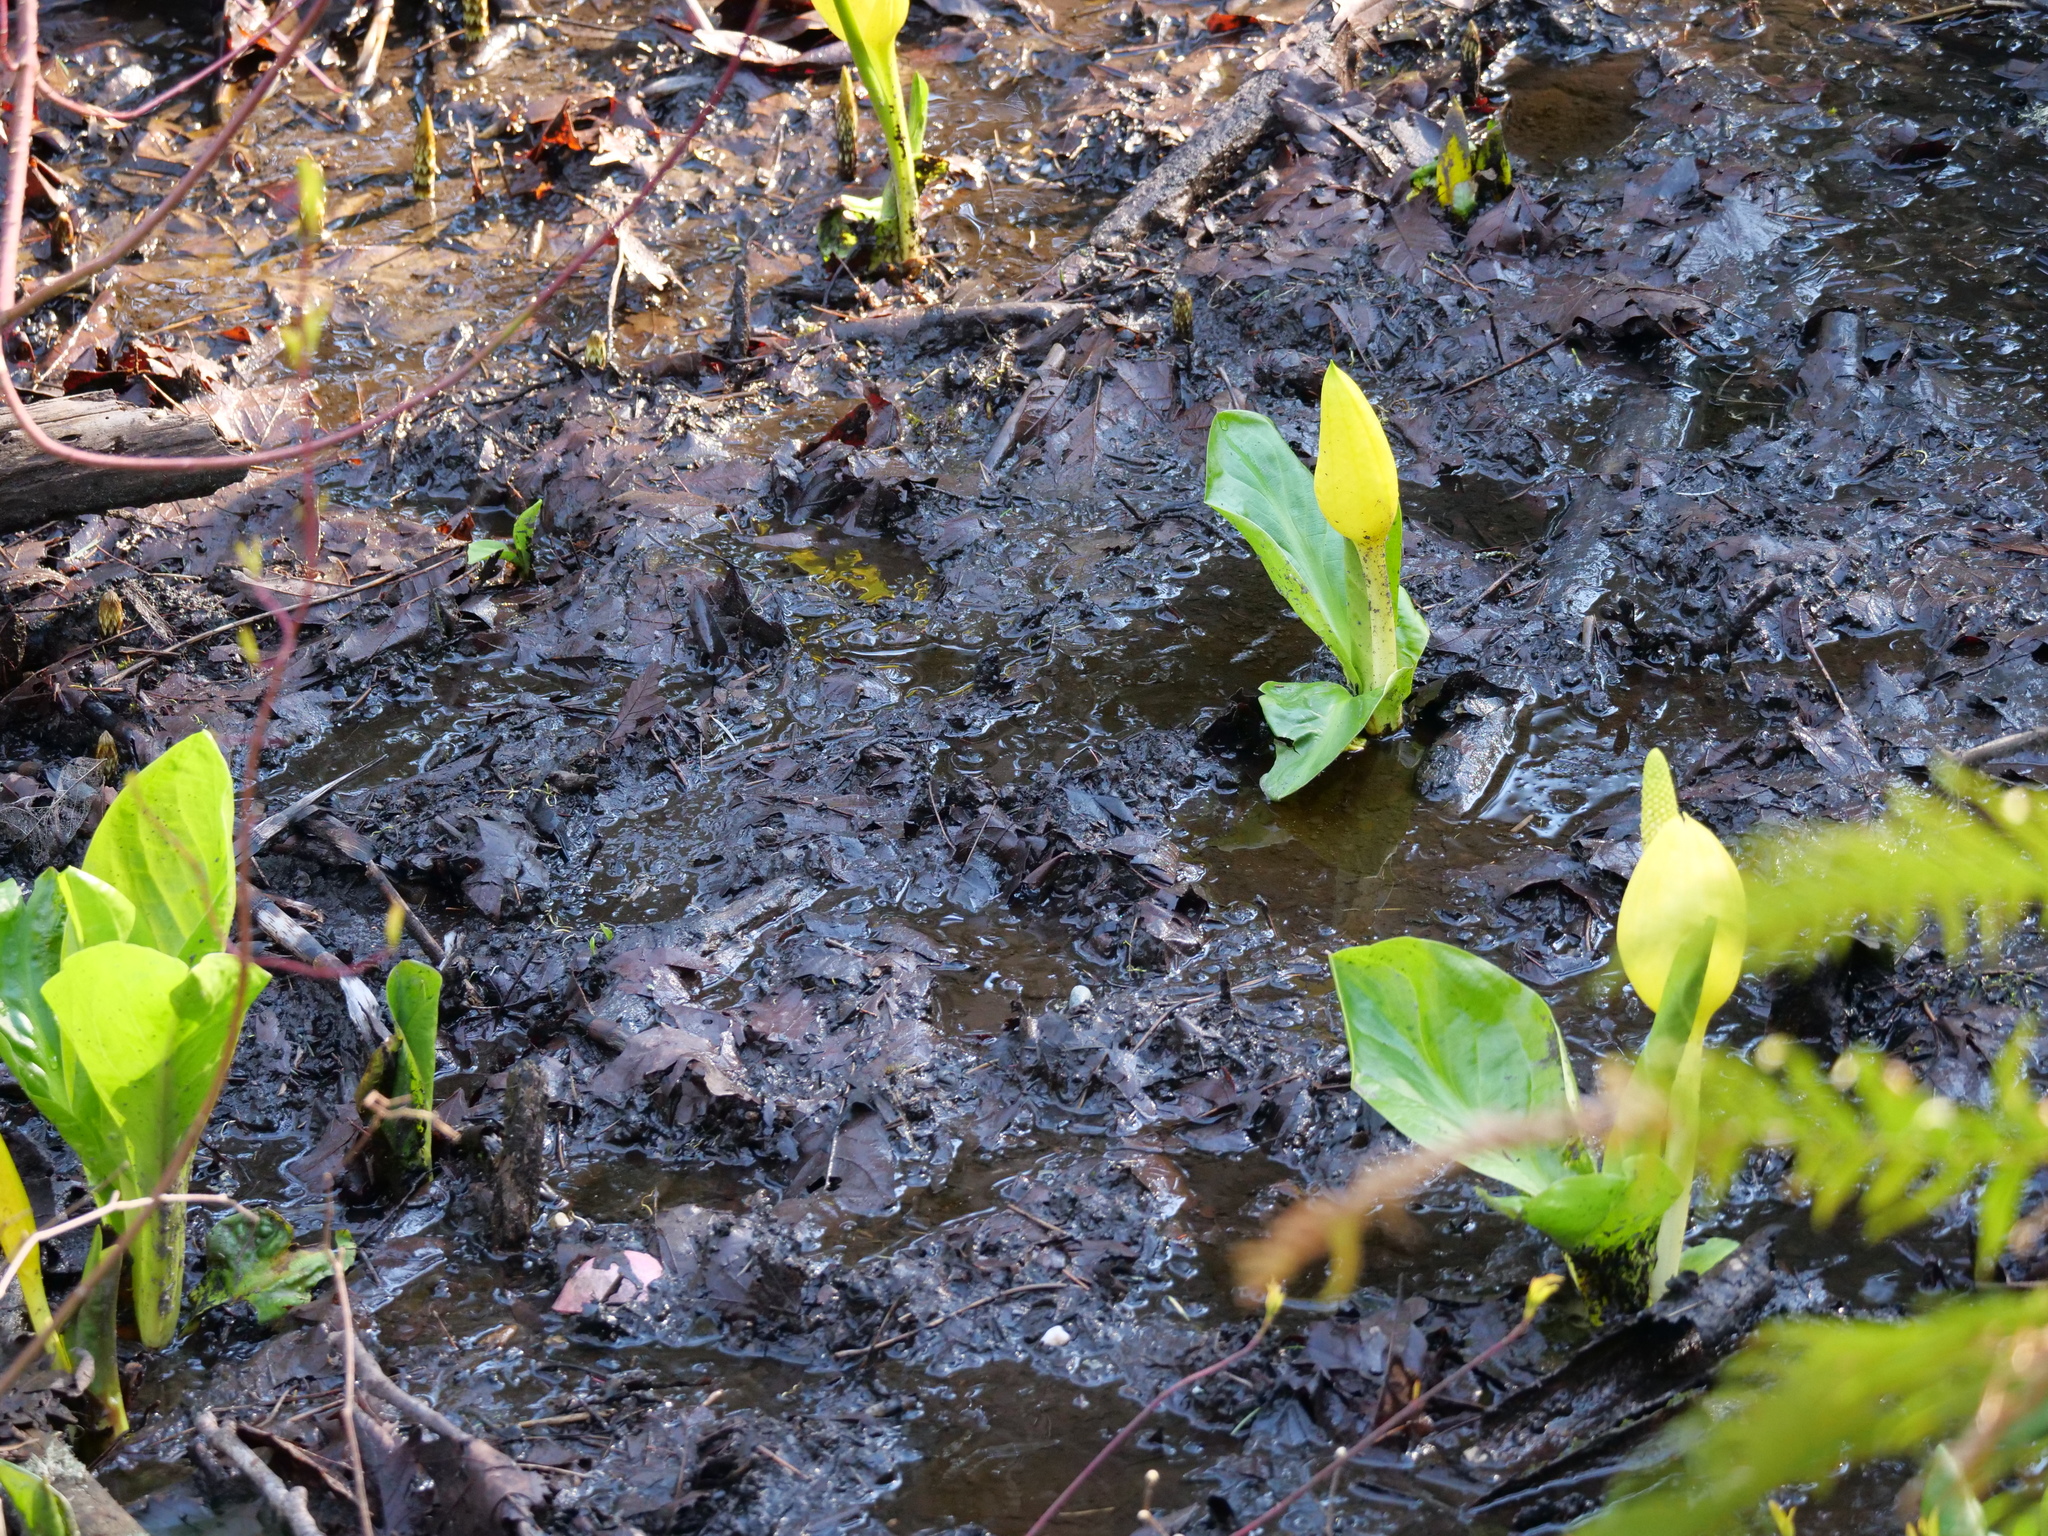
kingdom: Plantae
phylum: Tracheophyta
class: Liliopsida
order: Alismatales
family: Araceae
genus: Lysichiton
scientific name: Lysichiton americanus
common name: American skunk cabbage
